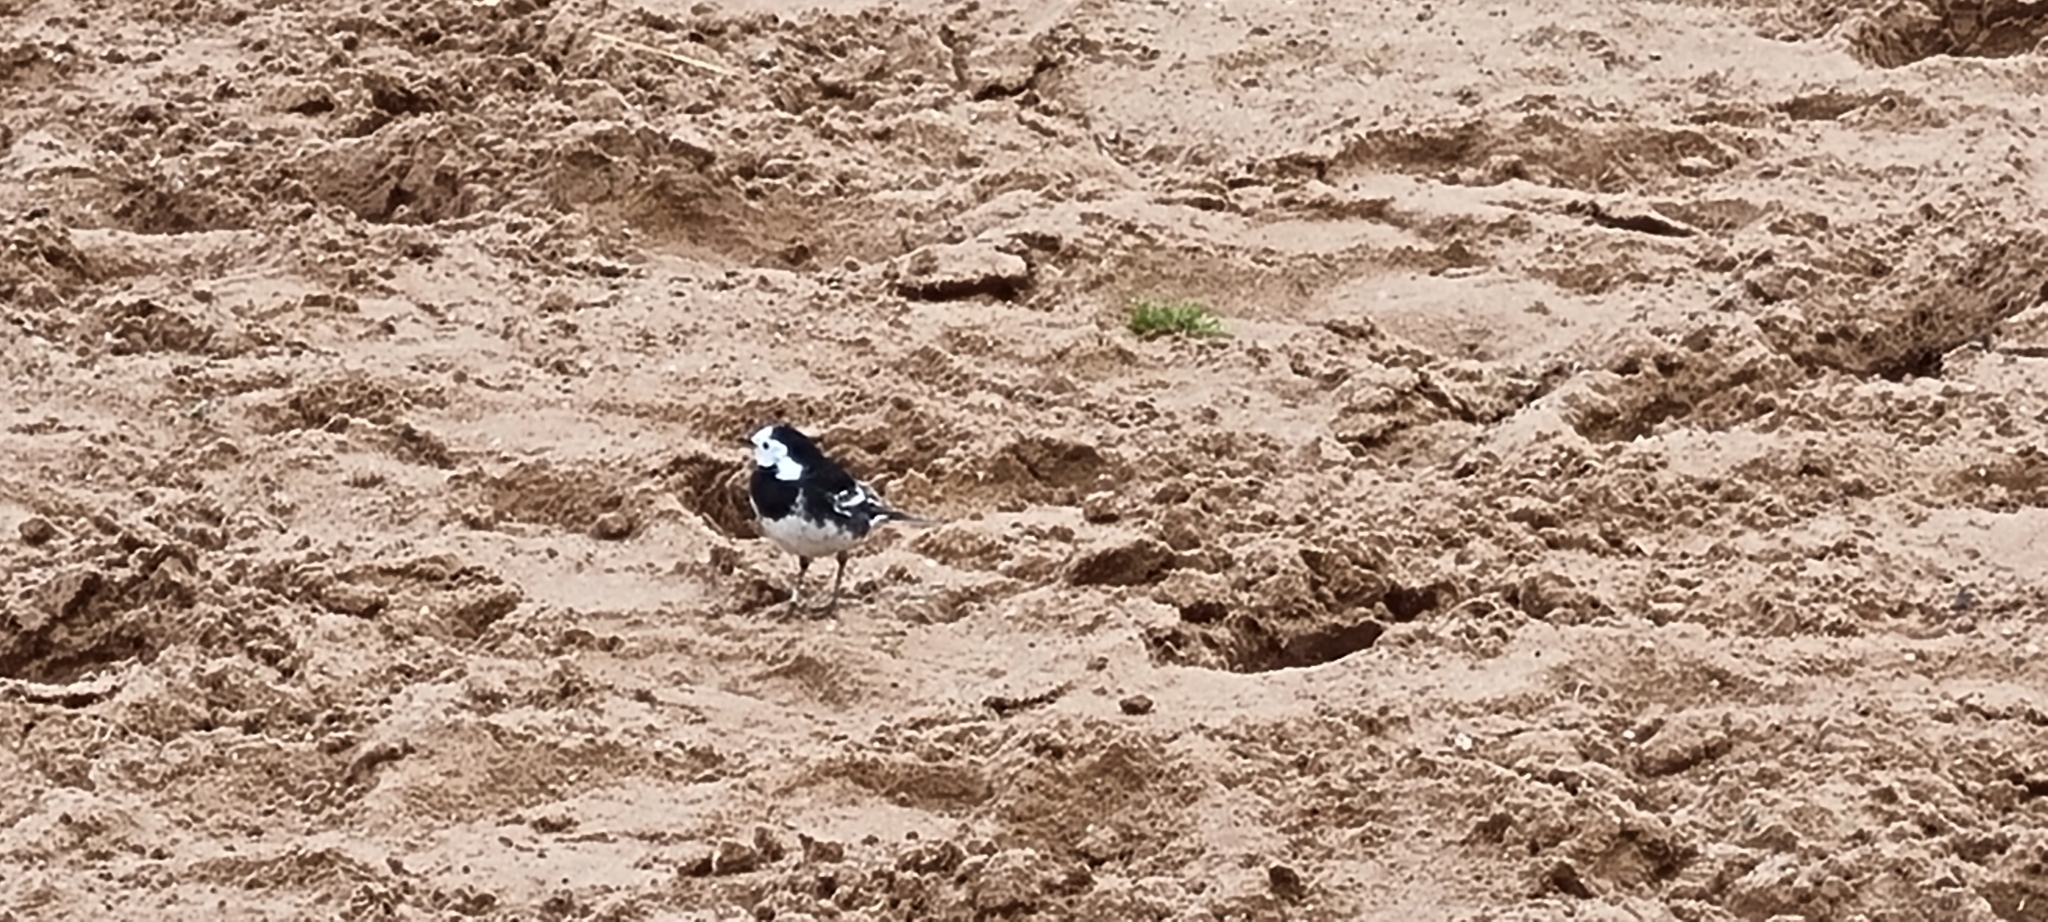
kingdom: Animalia
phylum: Chordata
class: Aves
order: Passeriformes
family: Motacillidae
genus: Motacilla
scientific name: Motacilla alba
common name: White wagtail
